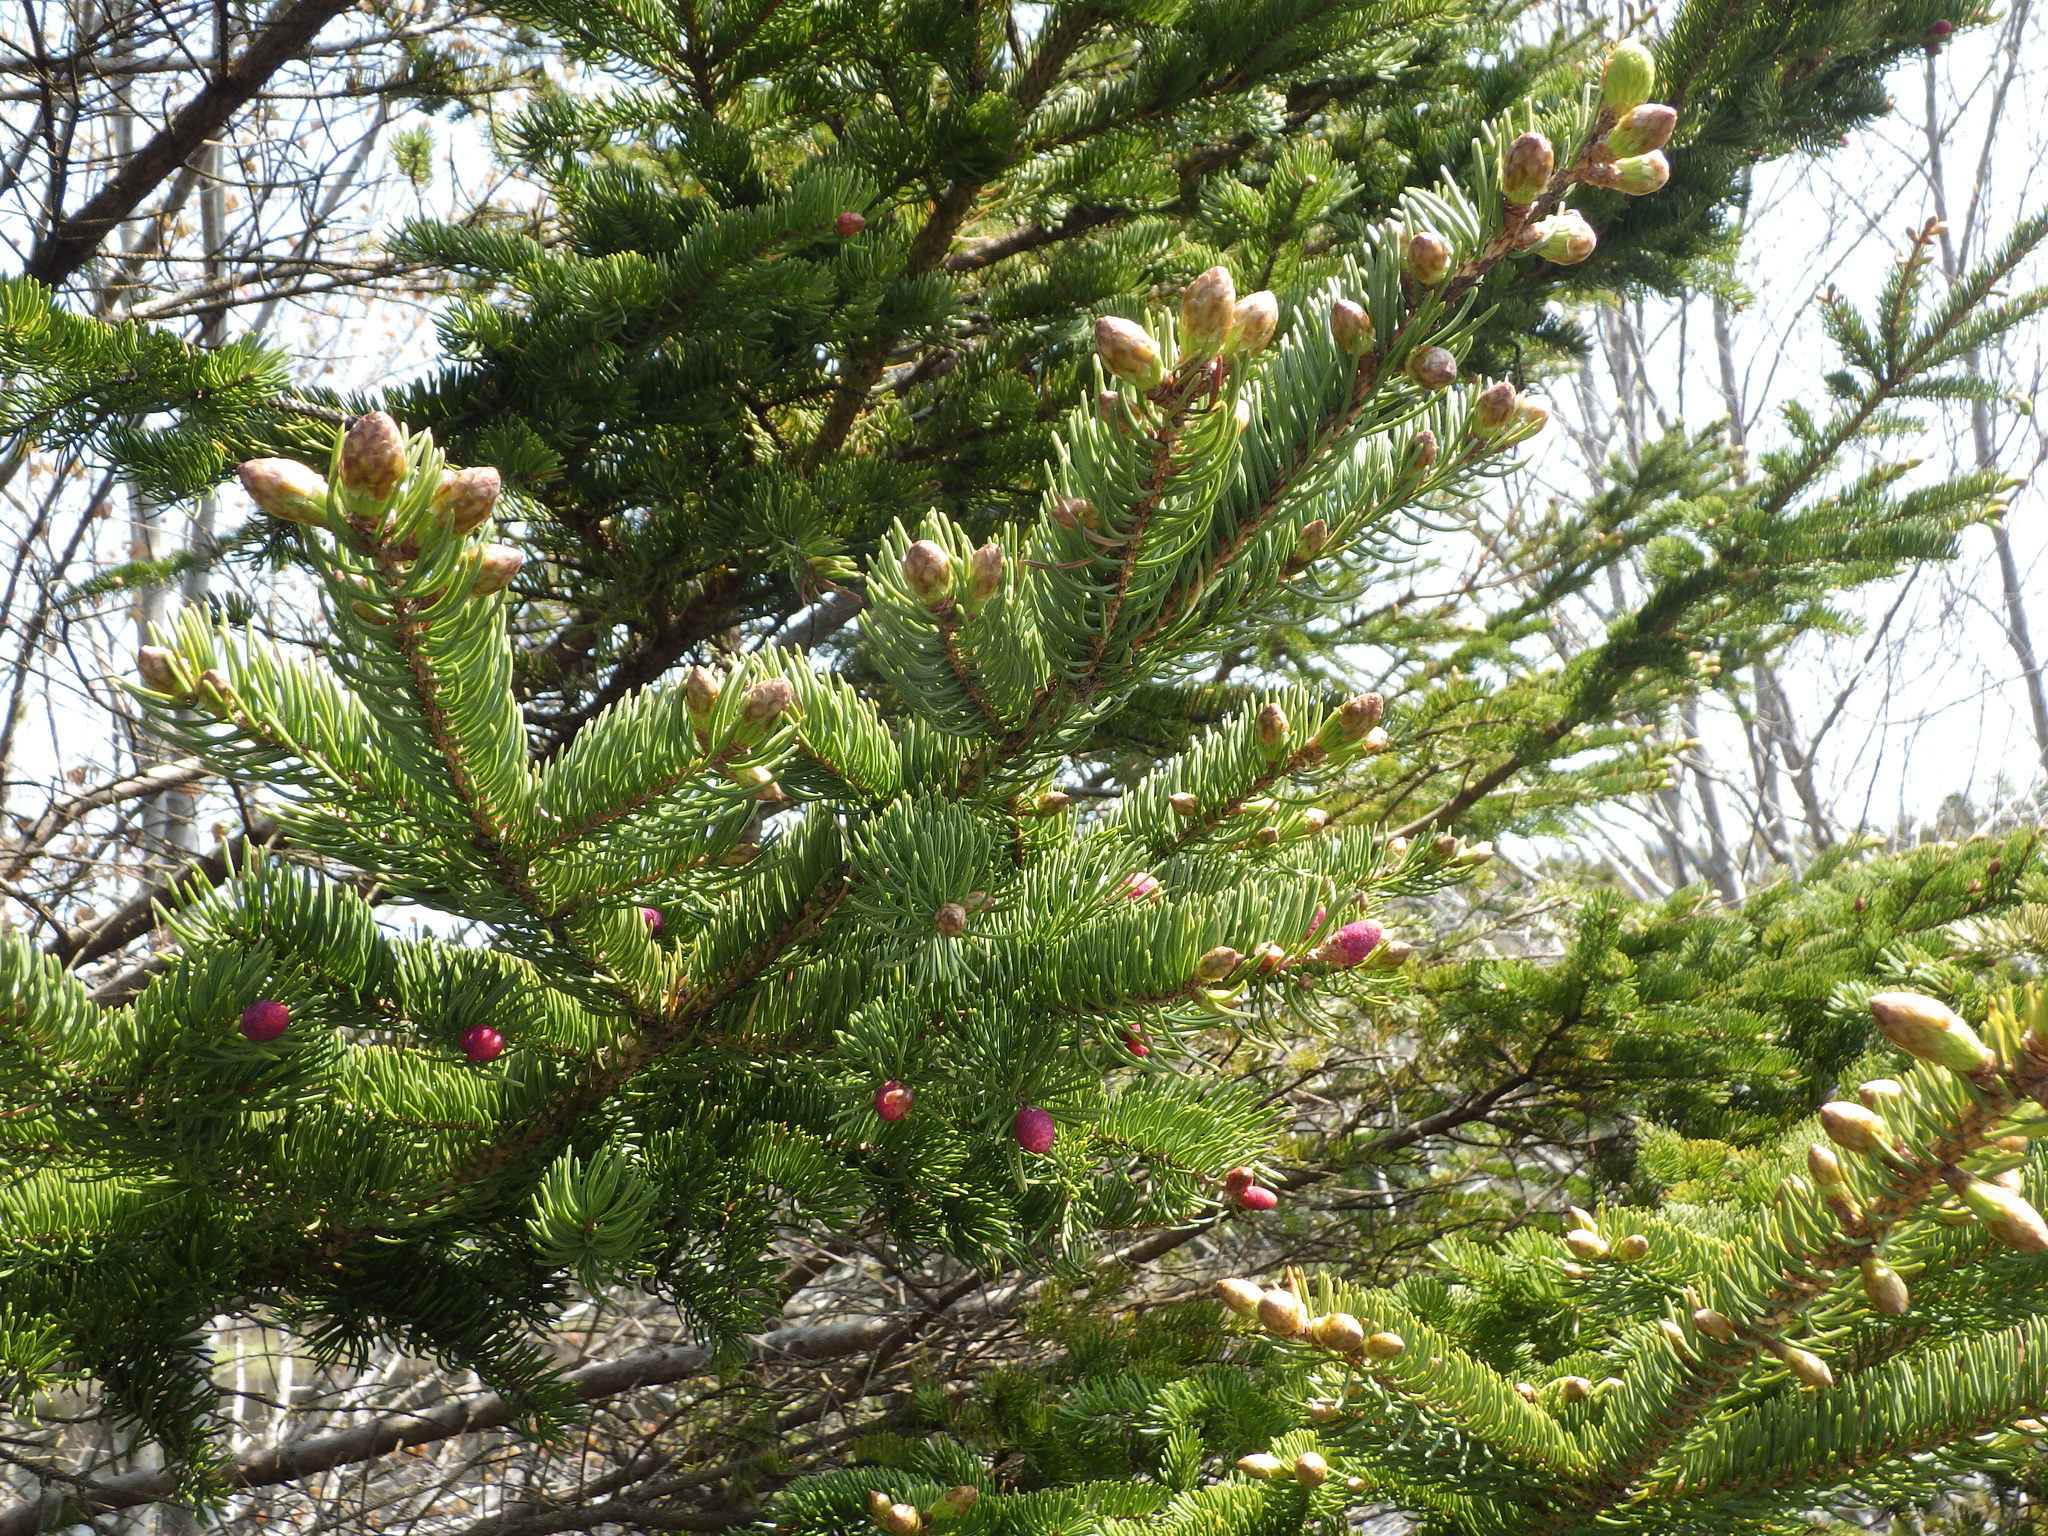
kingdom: Plantae
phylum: Tracheophyta
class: Pinopsida
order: Pinales
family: Pinaceae
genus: Picea
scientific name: Picea glauca
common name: White spruce
